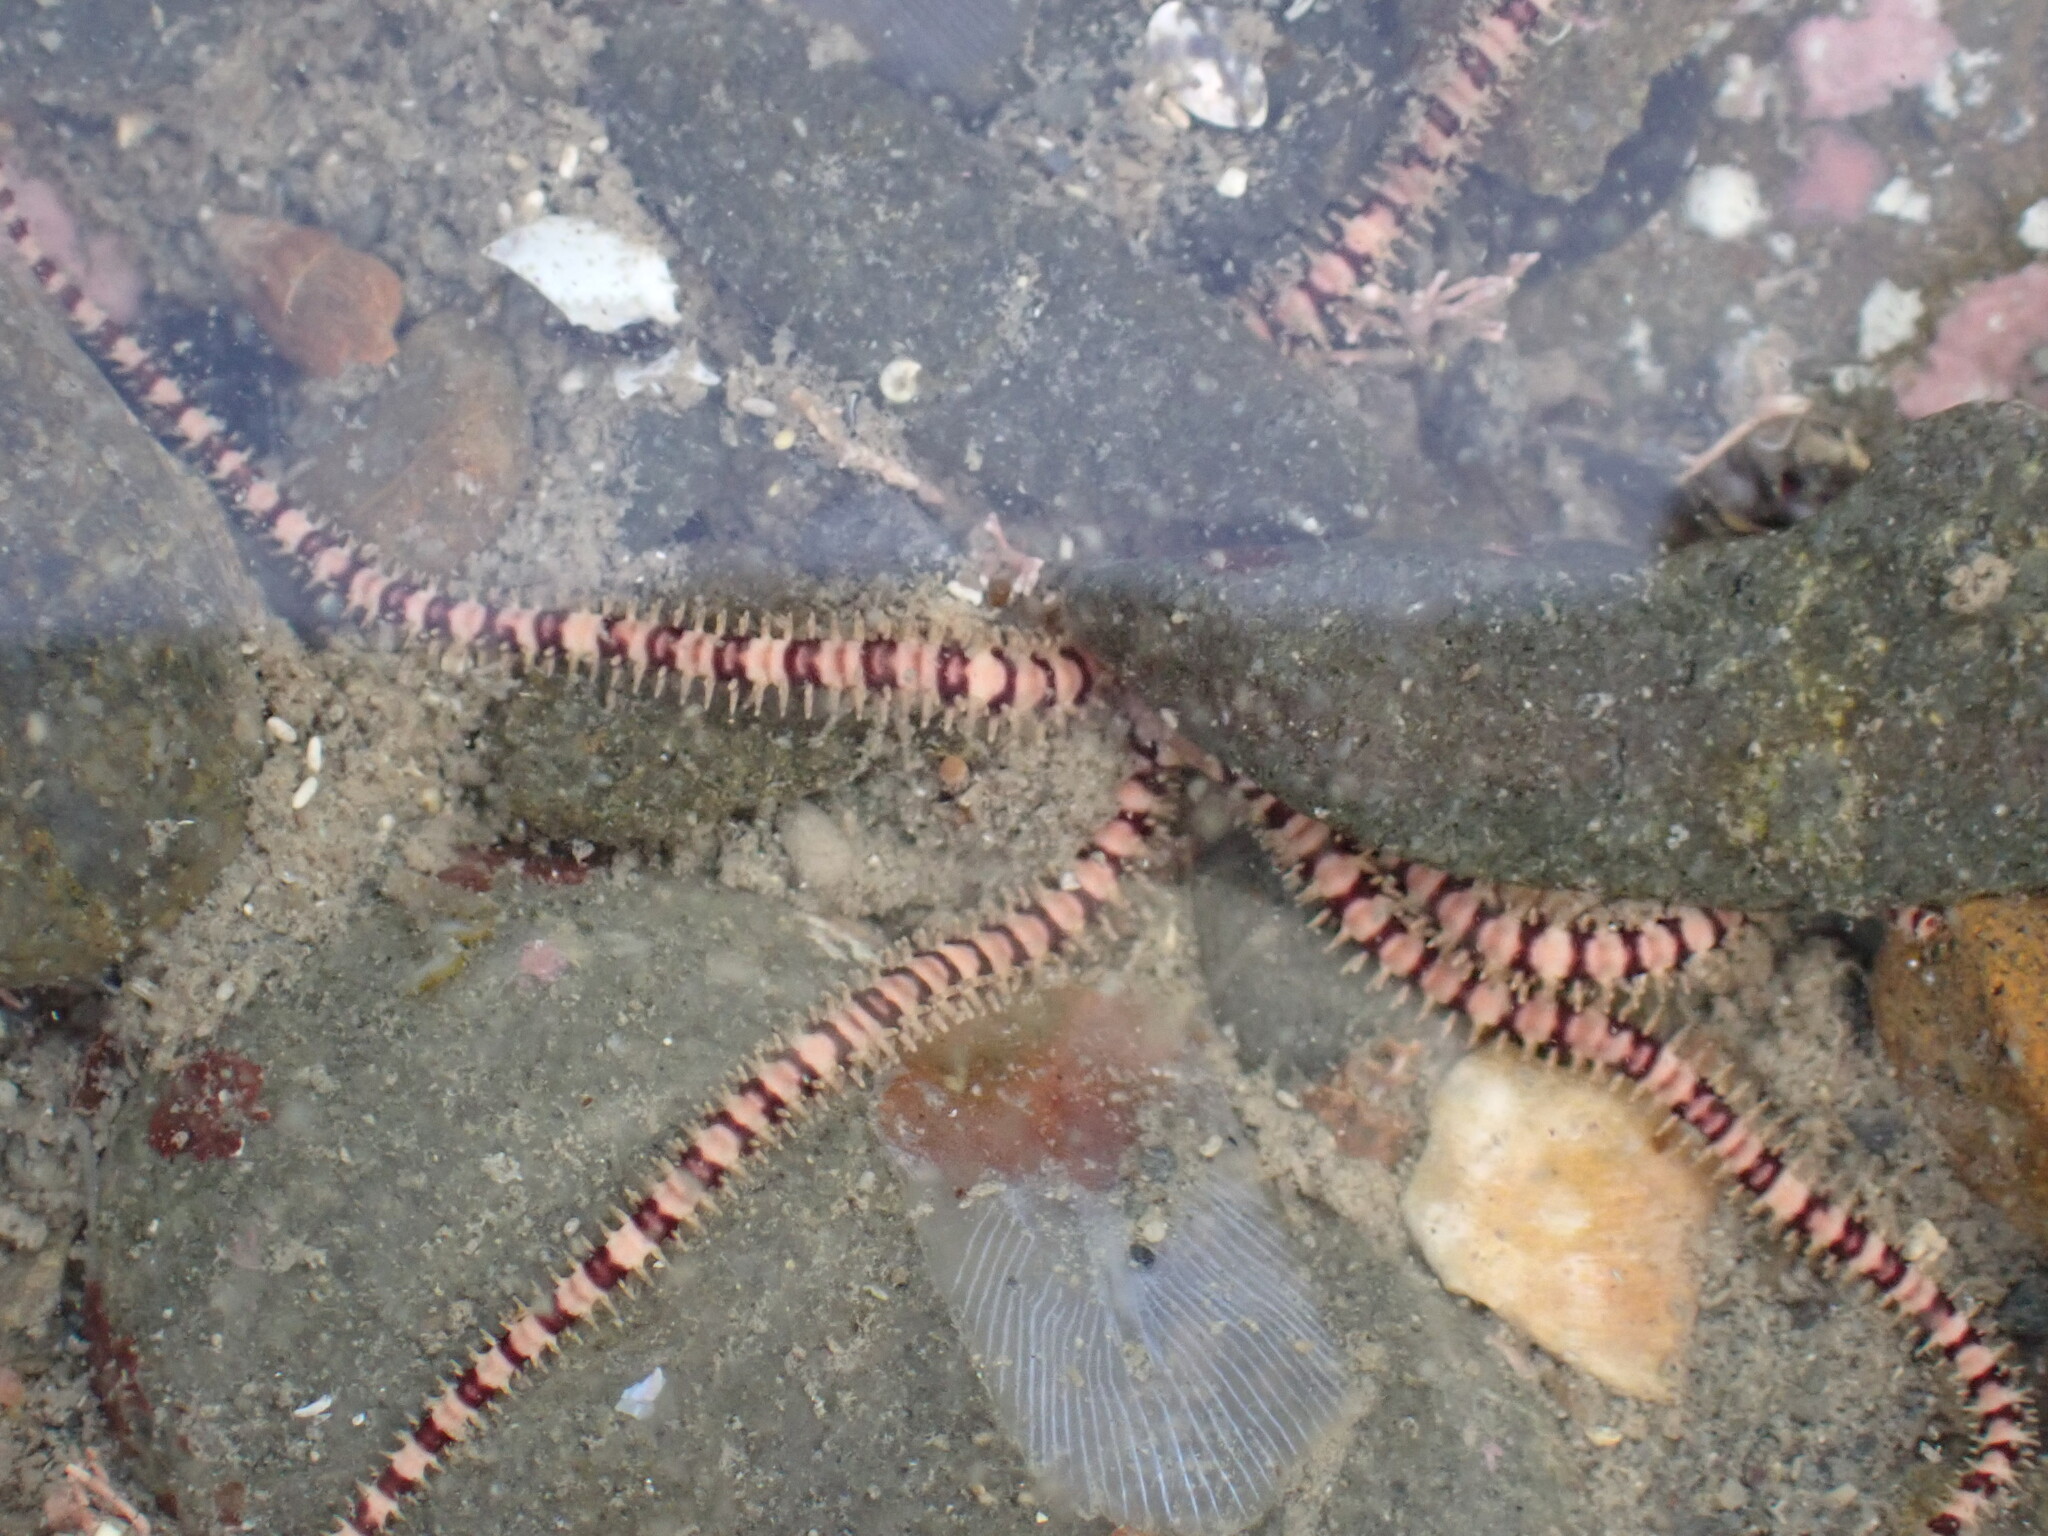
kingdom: Animalia
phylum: Echinodermata
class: Ophiuroidea
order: Amphilepidida
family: Ophionereididae
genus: Ophionereis
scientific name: Ophionereis fasciata
